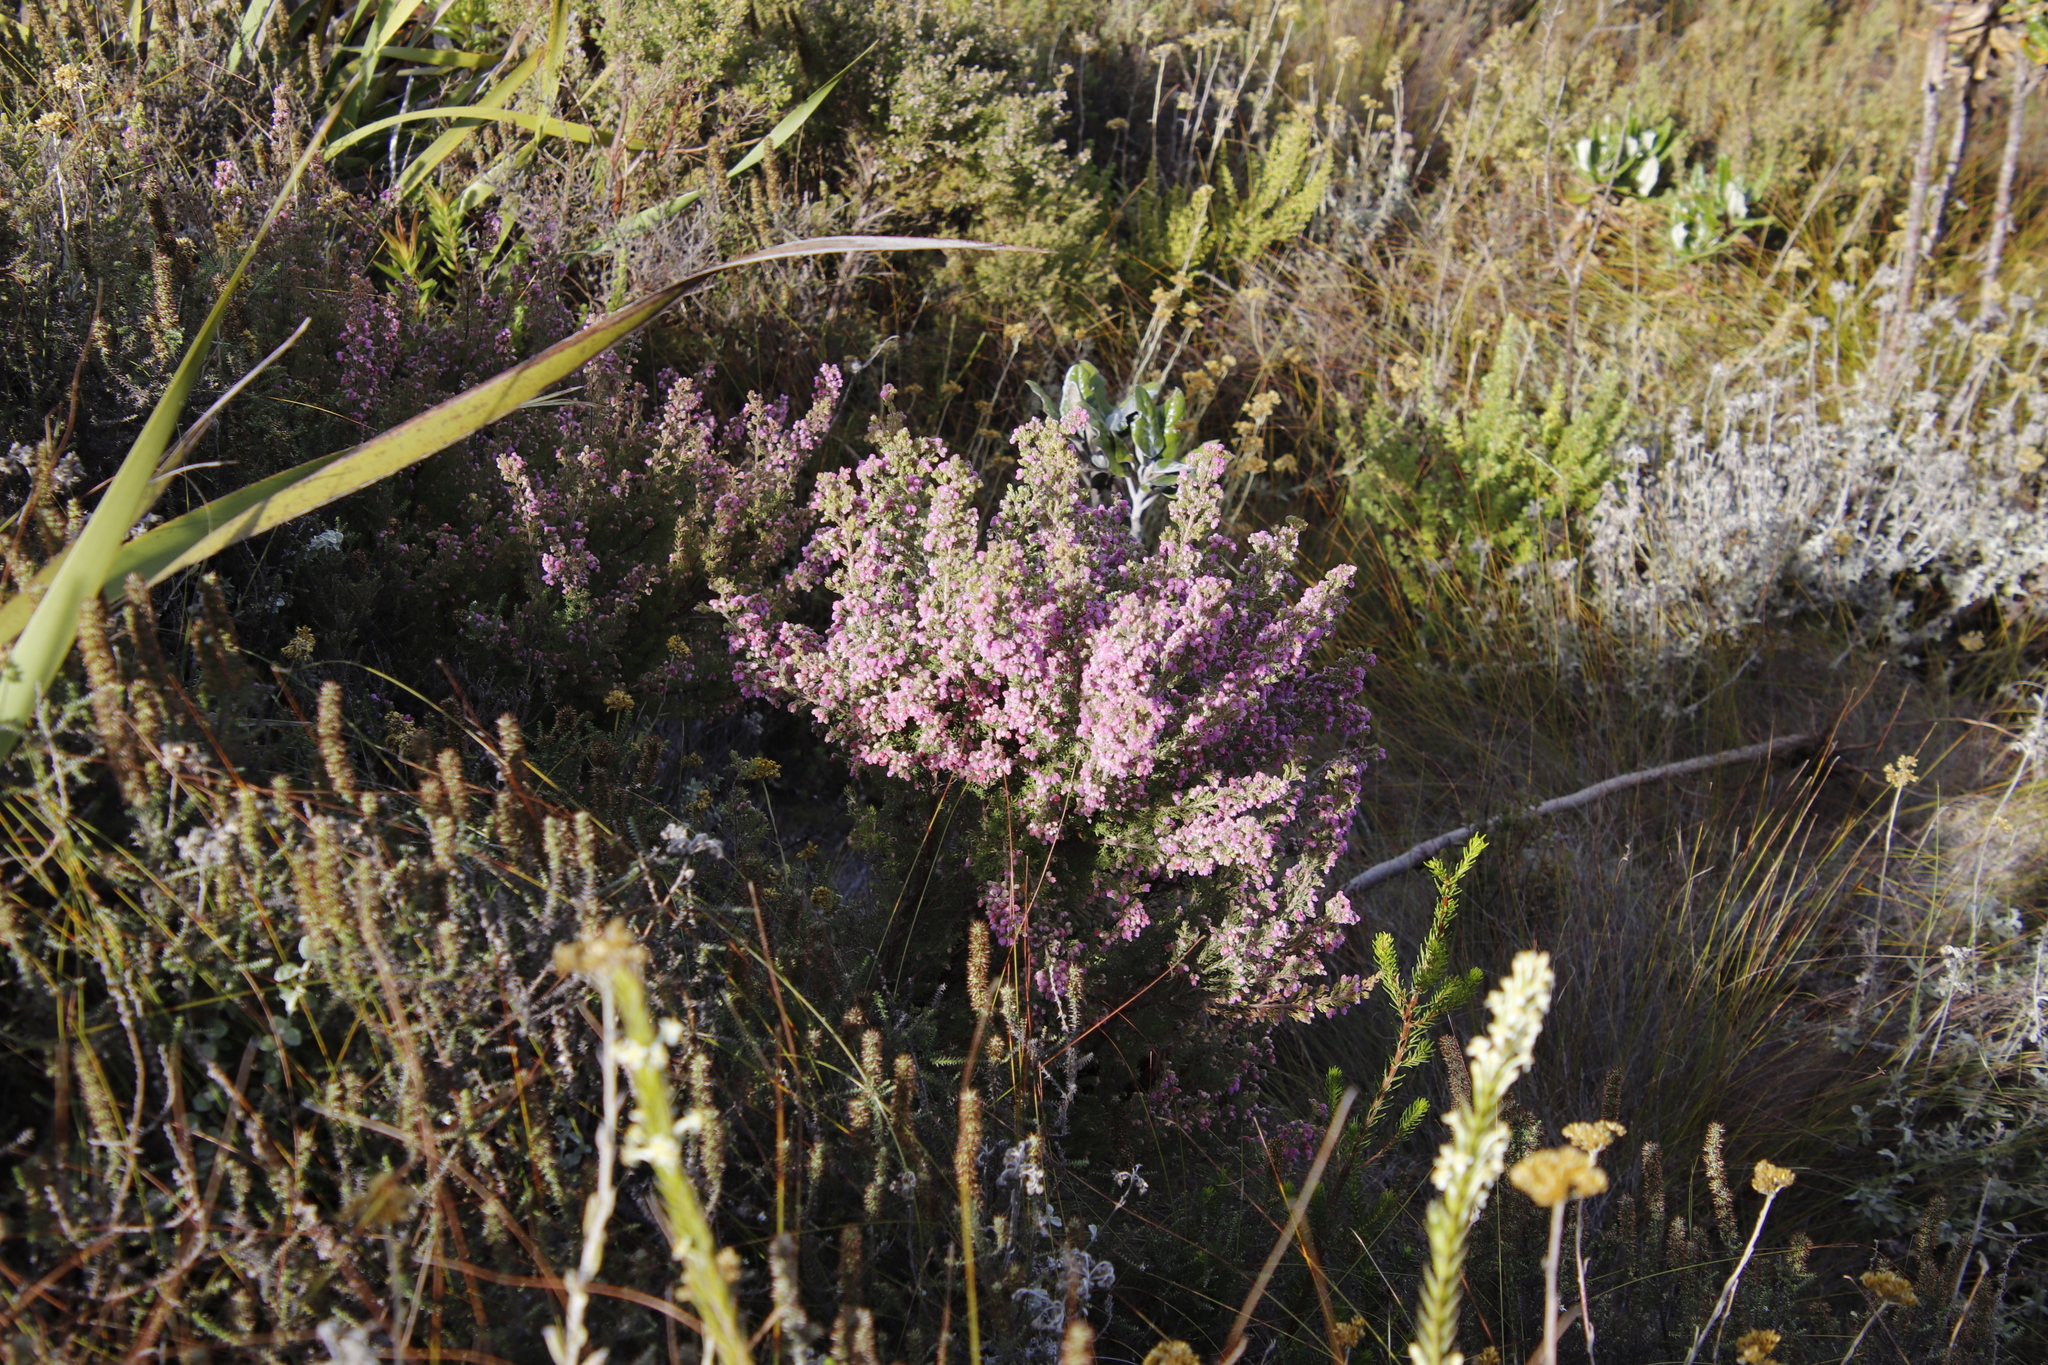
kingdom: Plantae
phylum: Tracheophyta
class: Magnoliopsida
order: Ericales
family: Ericaceae
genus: Erica
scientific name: Erica hirtiflora
